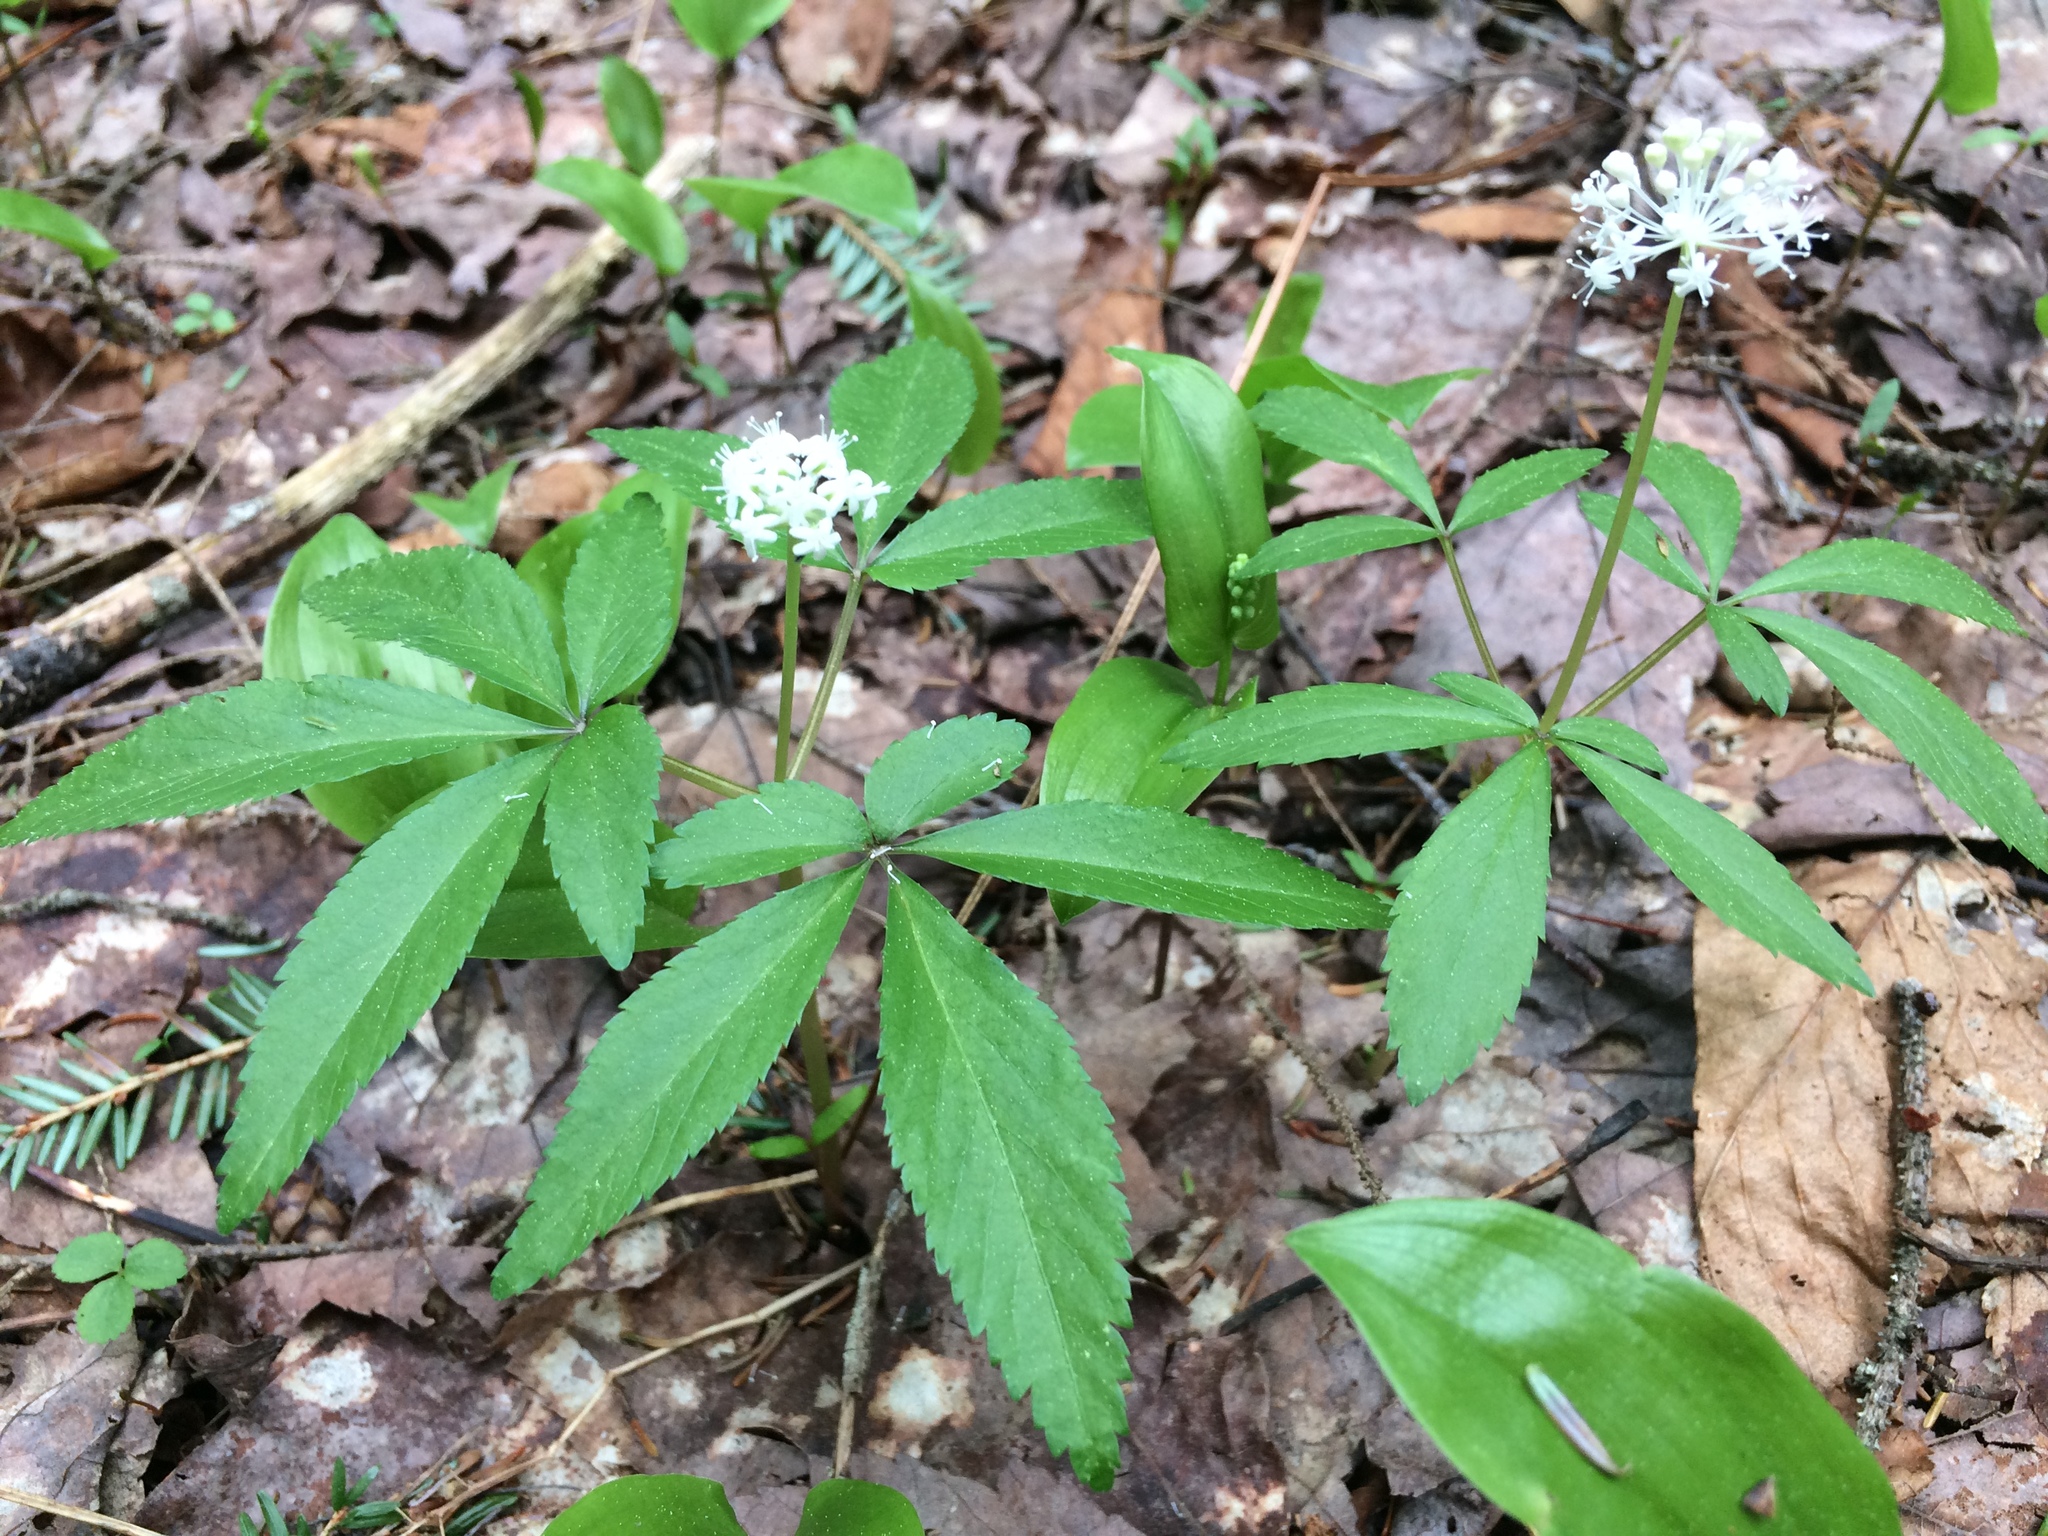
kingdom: Plantae
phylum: Tracheophyta
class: Magnoliopsida
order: Apiales
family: Araliaceae
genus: Panax
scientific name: Panax trifolius
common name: Dwarf ginseng
